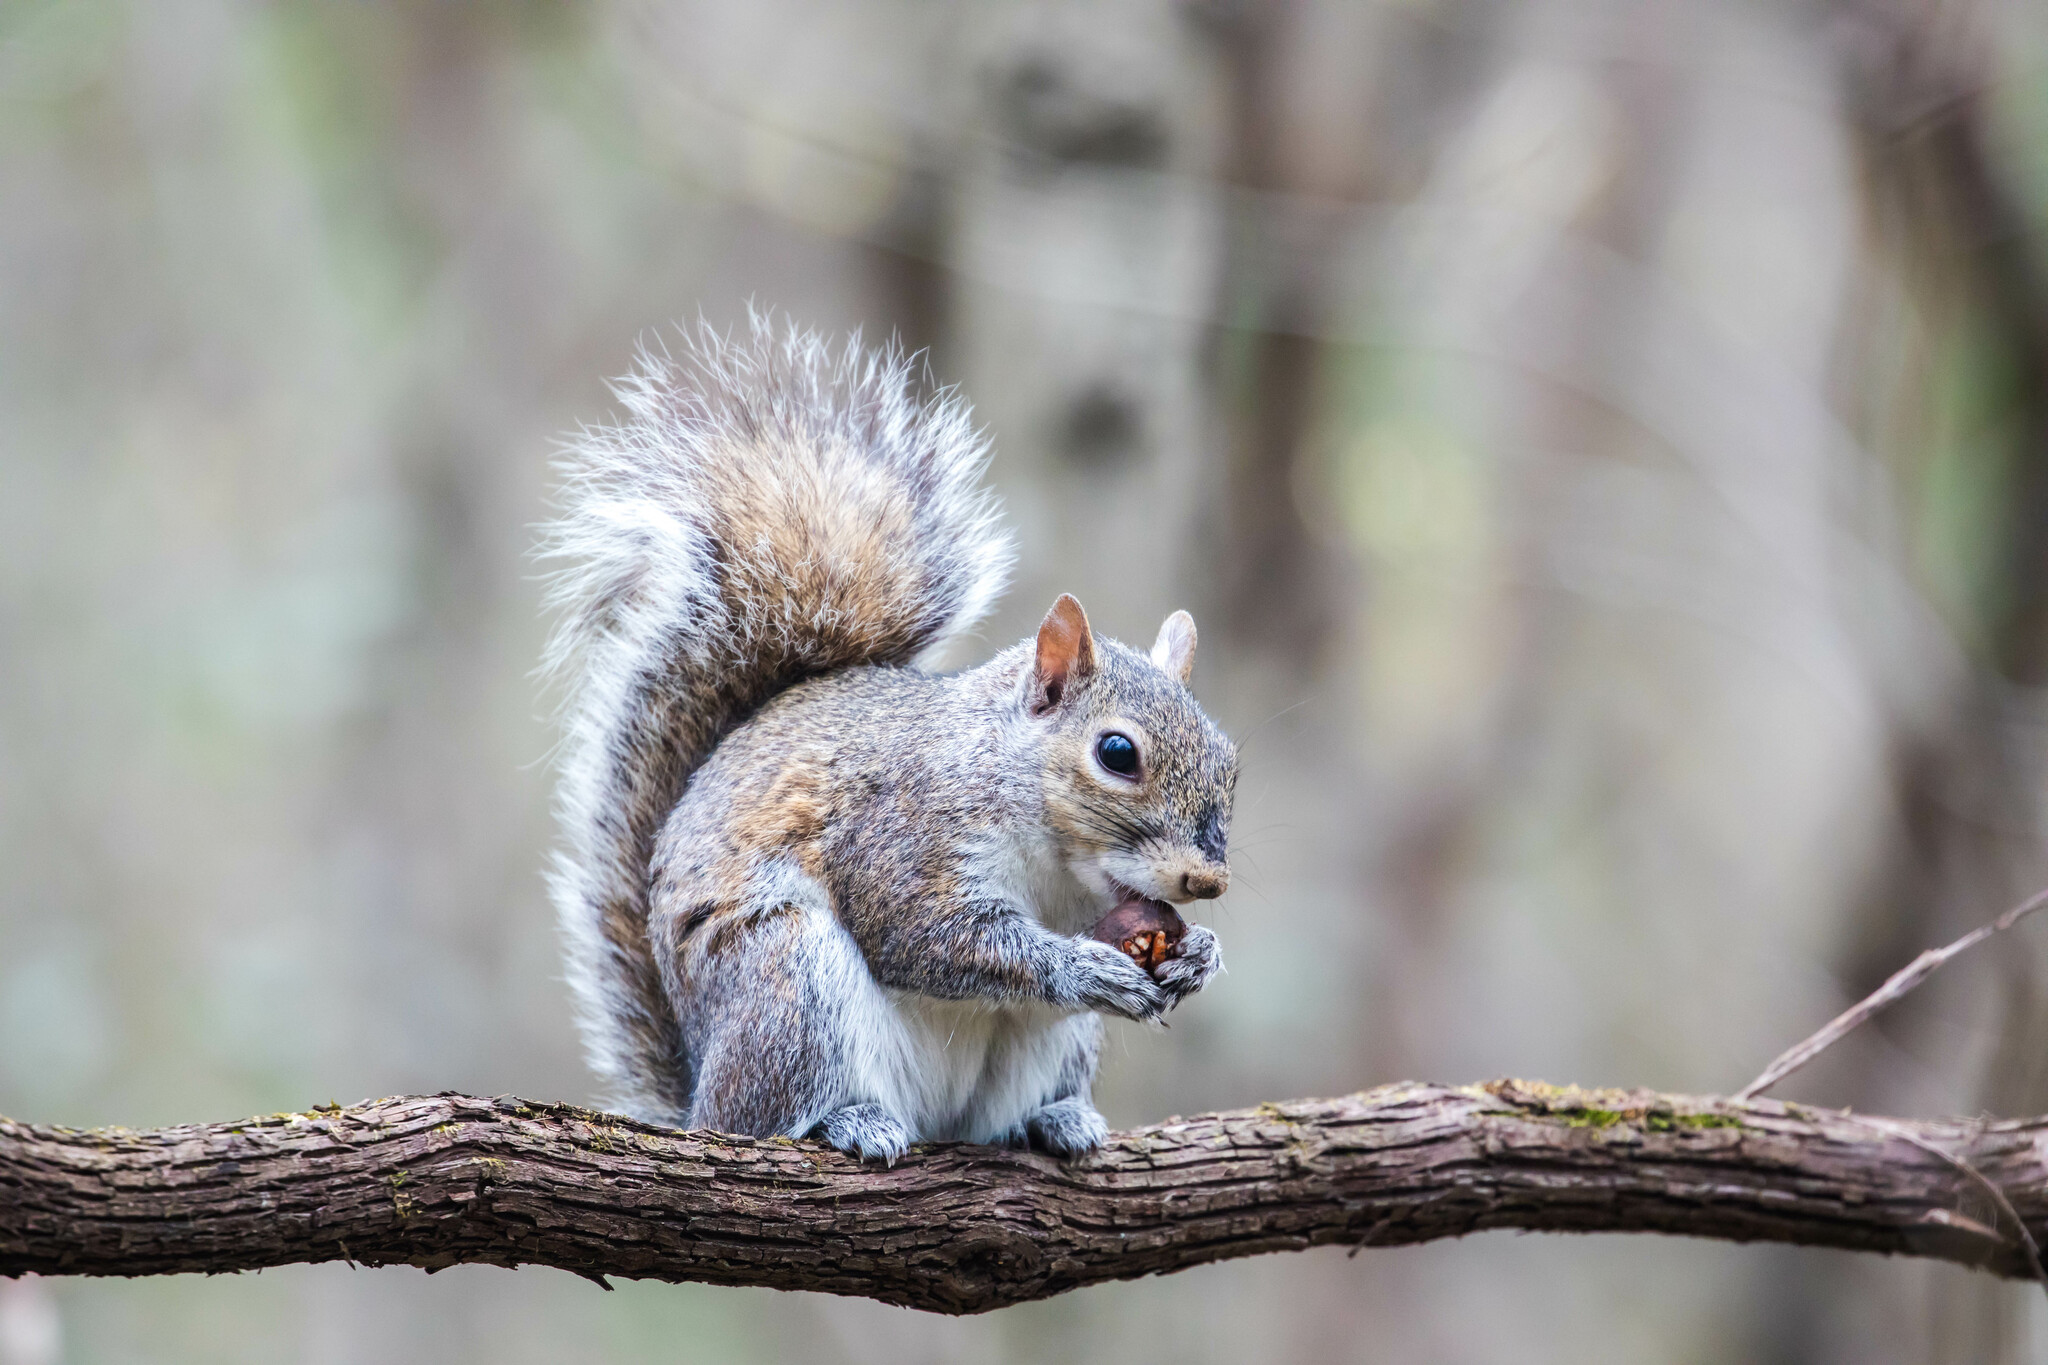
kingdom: Animalia
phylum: Chordata
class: Mammalia
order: Rodentia
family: Sciuridae
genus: Sciurus
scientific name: Sciurus carolinensis
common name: Eastern gray squirrel
